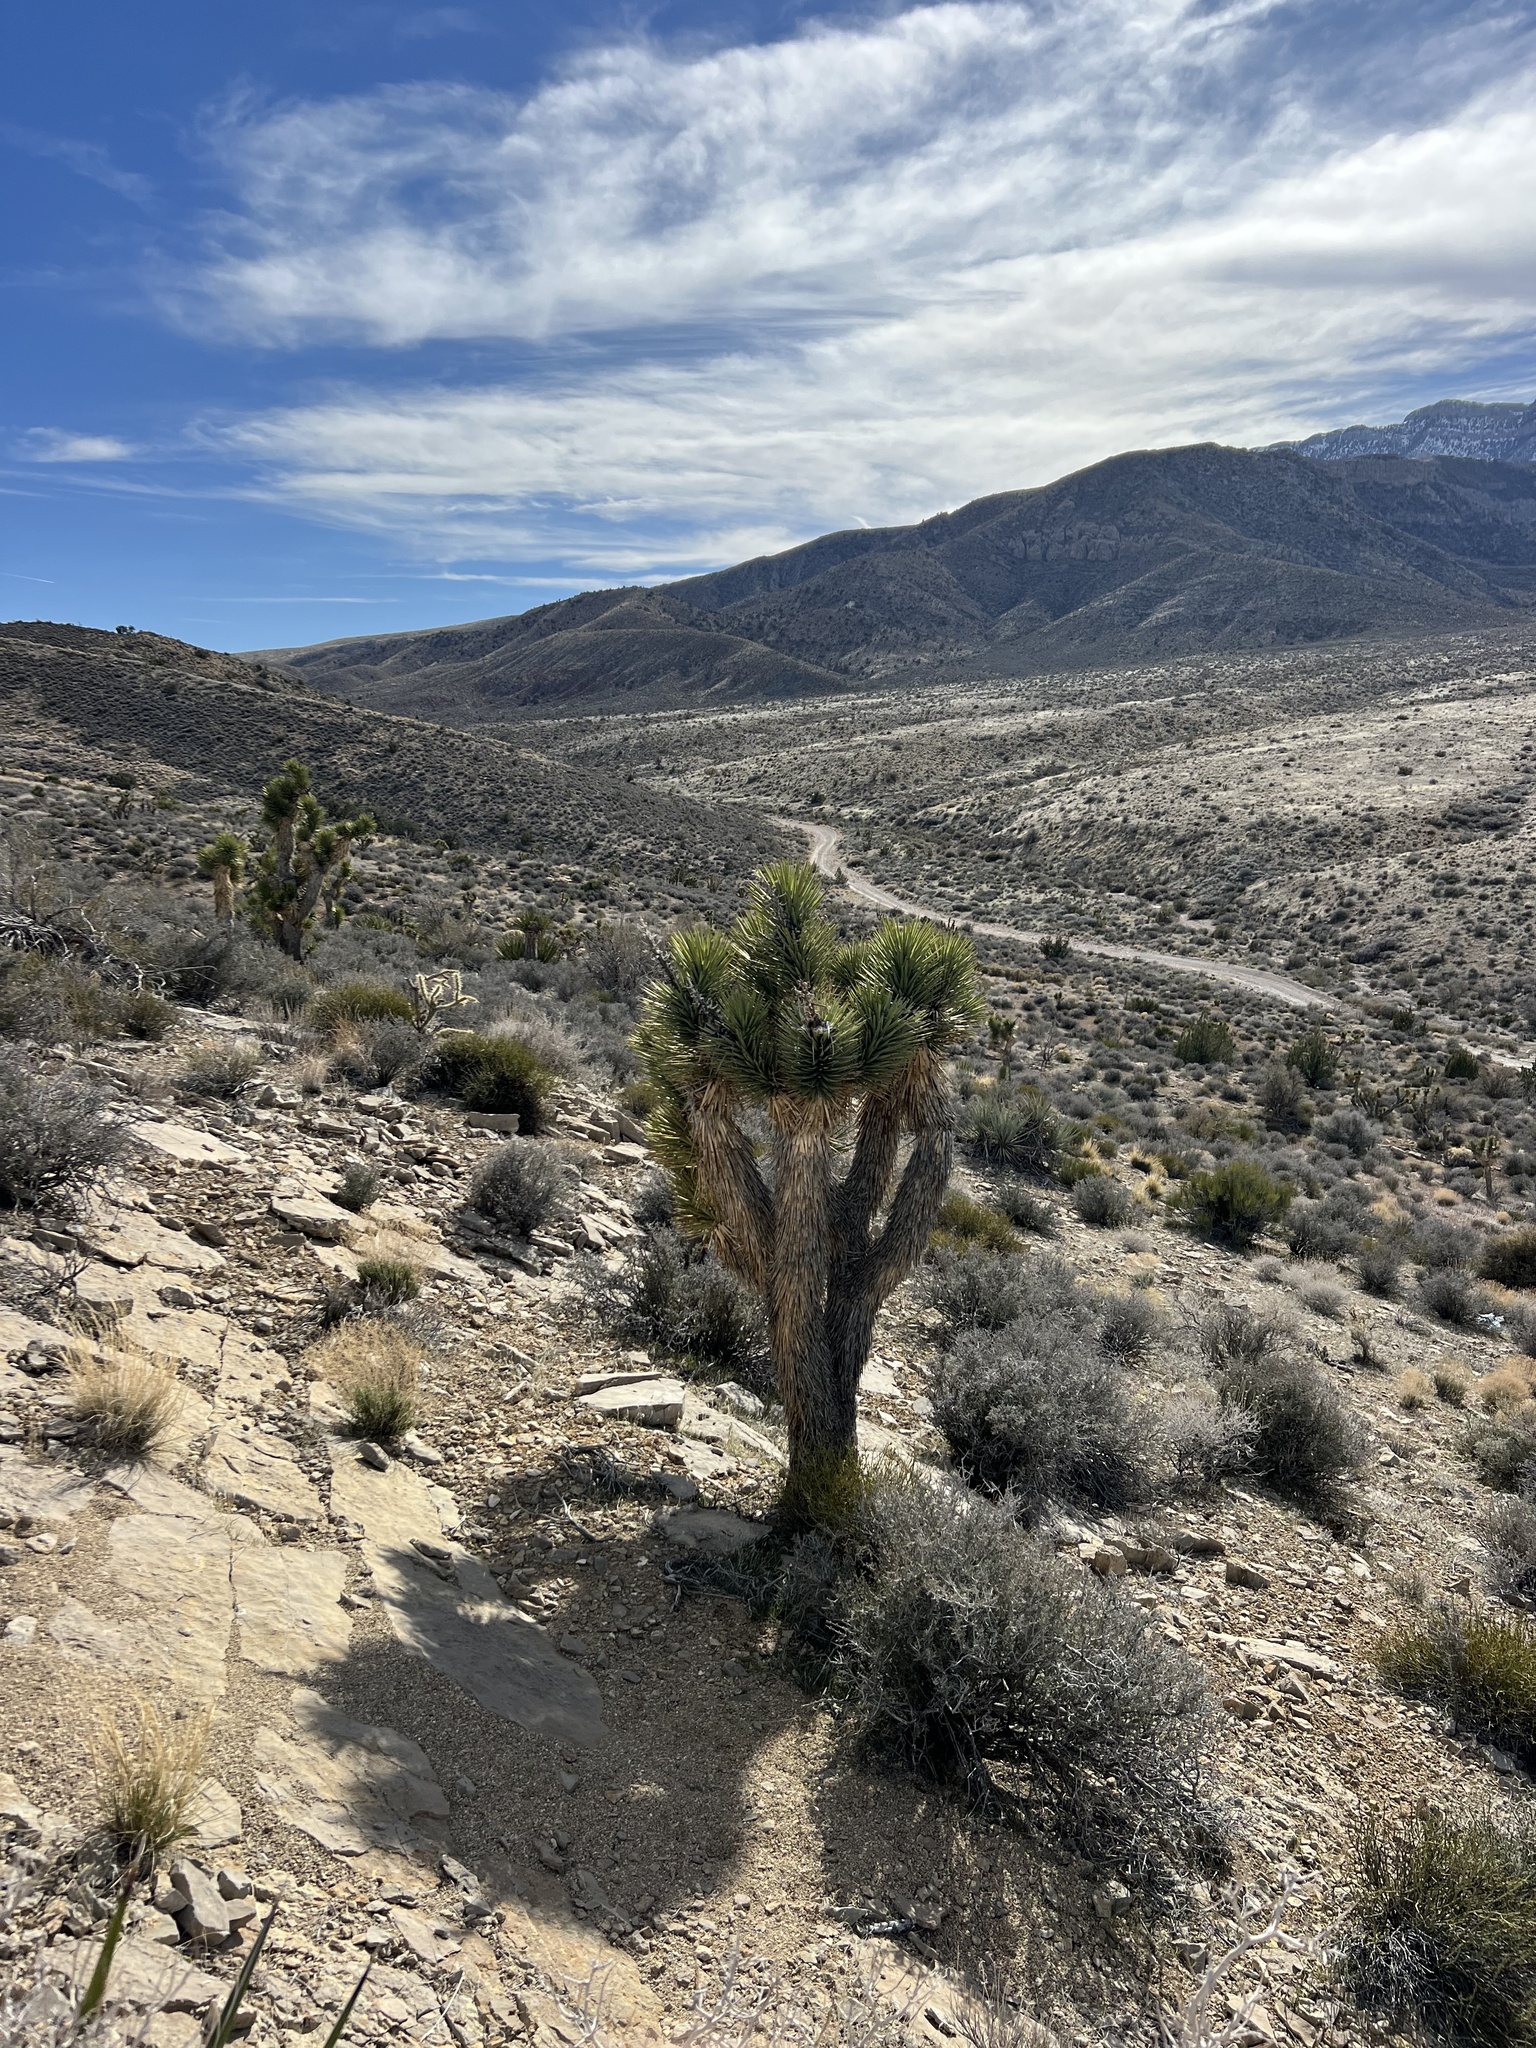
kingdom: Plantae
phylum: Tracheophyta
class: Liliopsida
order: Asparagales
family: Asparagaceae
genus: Yucca
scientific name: Yucca brevifolia
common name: Joshua tree
